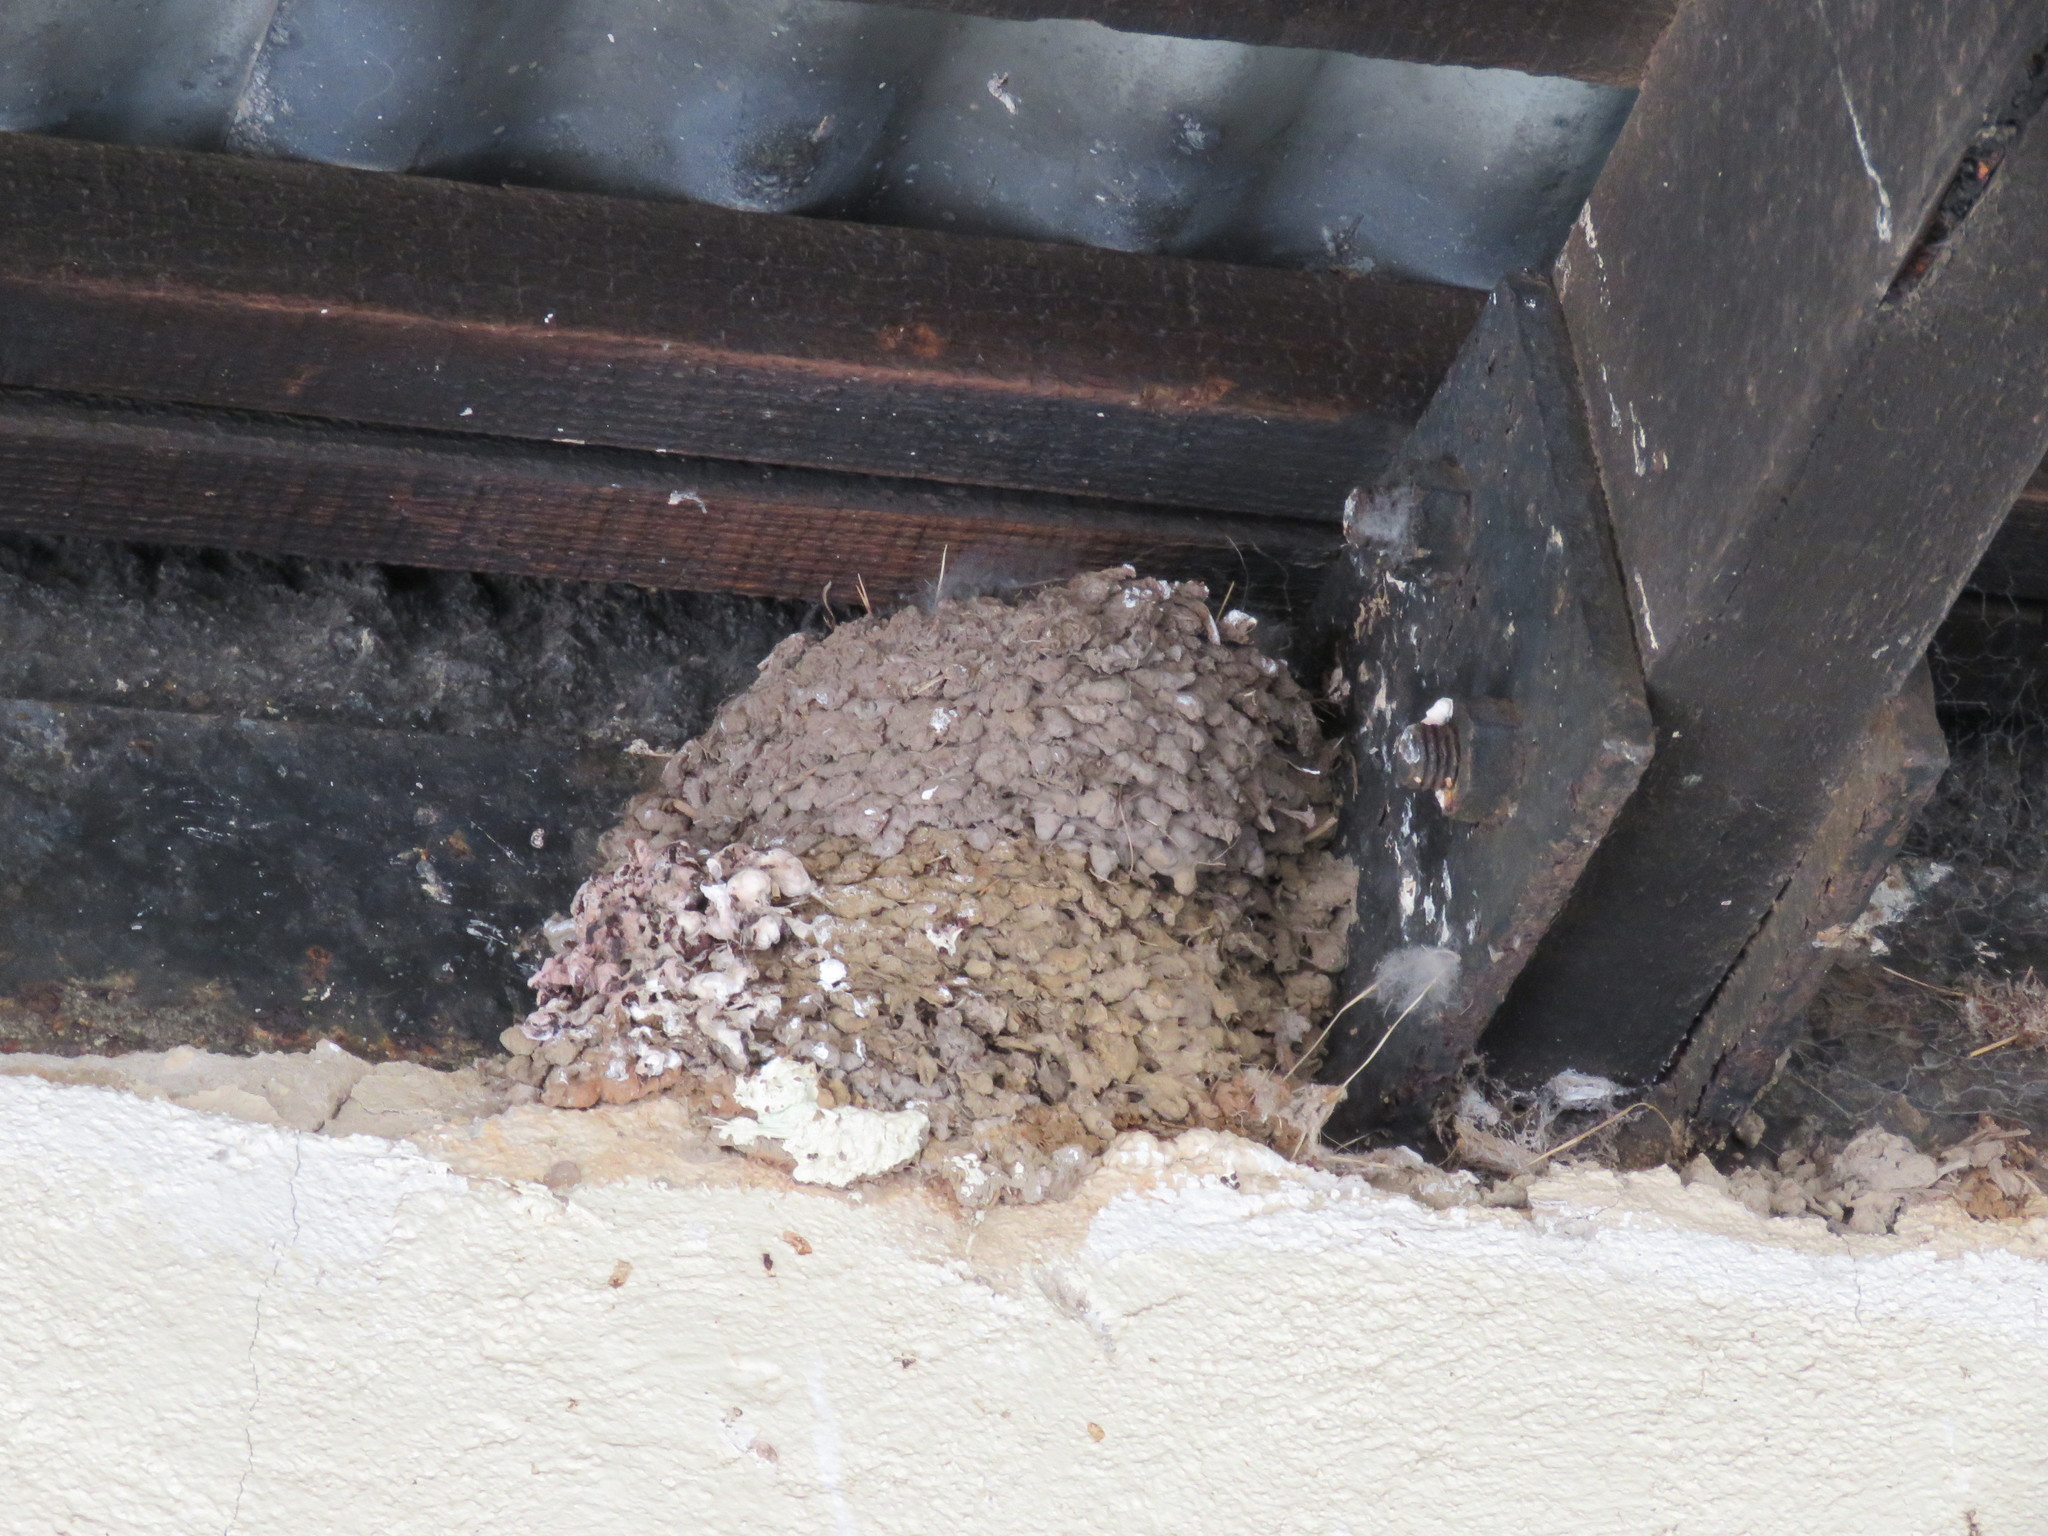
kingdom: Animalia
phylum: Chordata
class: Aves
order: Passeriformes
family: Hirundinidae
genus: Hirundo
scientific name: Hirundo neoxena
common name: Welcome swallow
